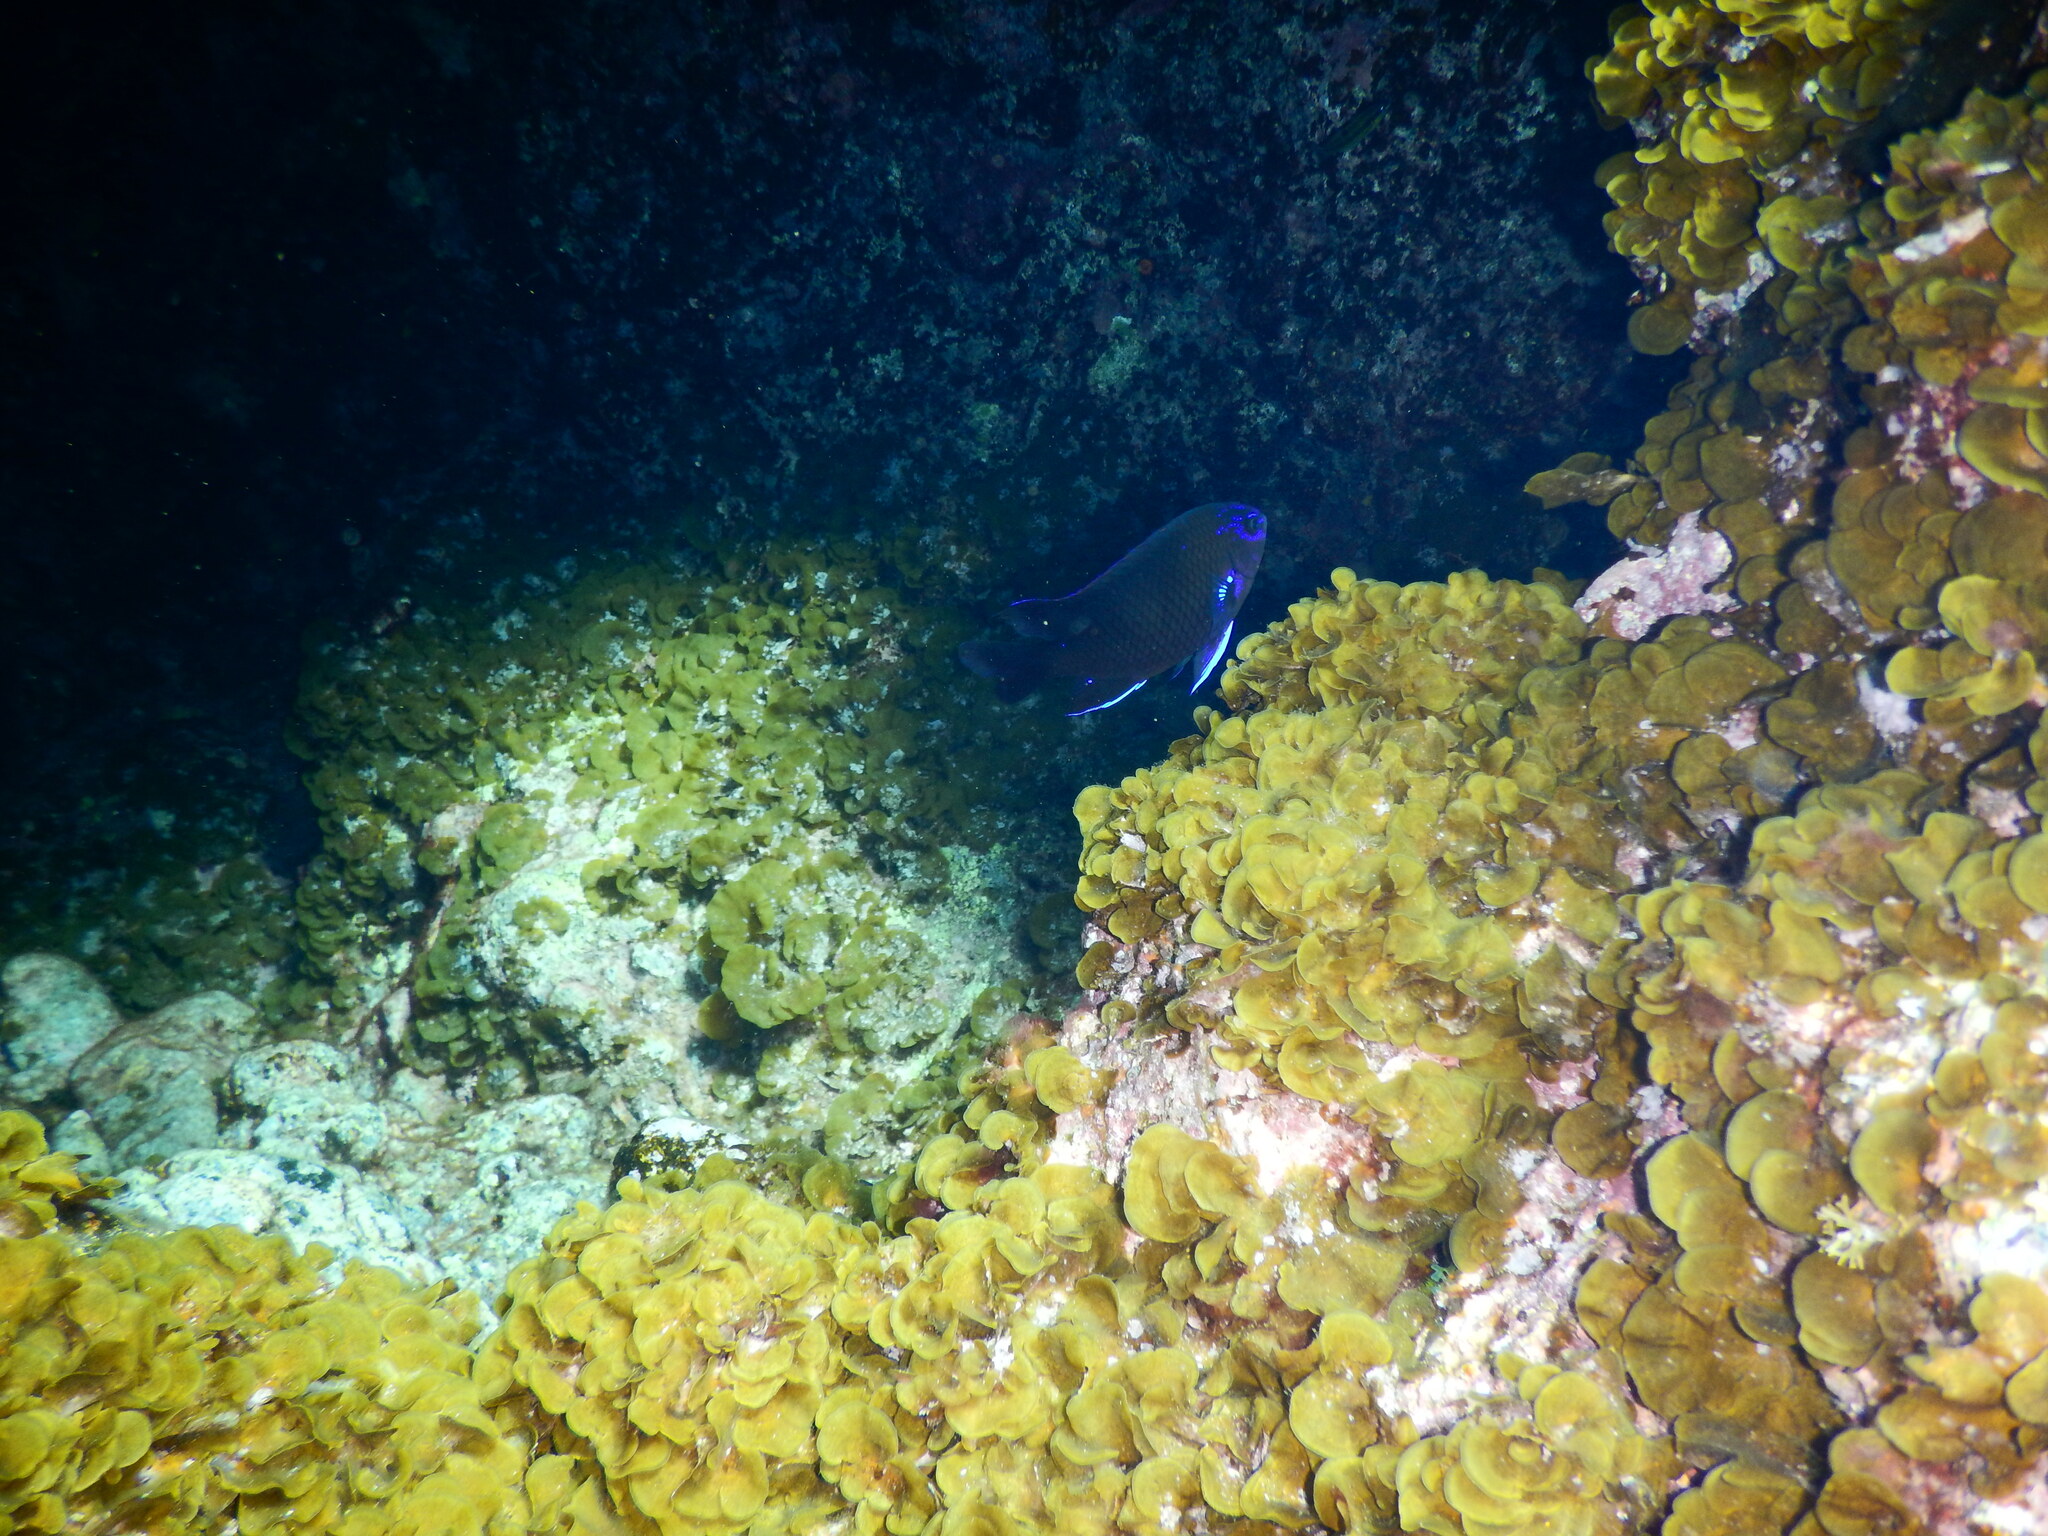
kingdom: Animalia
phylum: Chordata
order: Perciformes
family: Pomacentridae
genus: Similiparma
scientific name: Similiparma lurida
